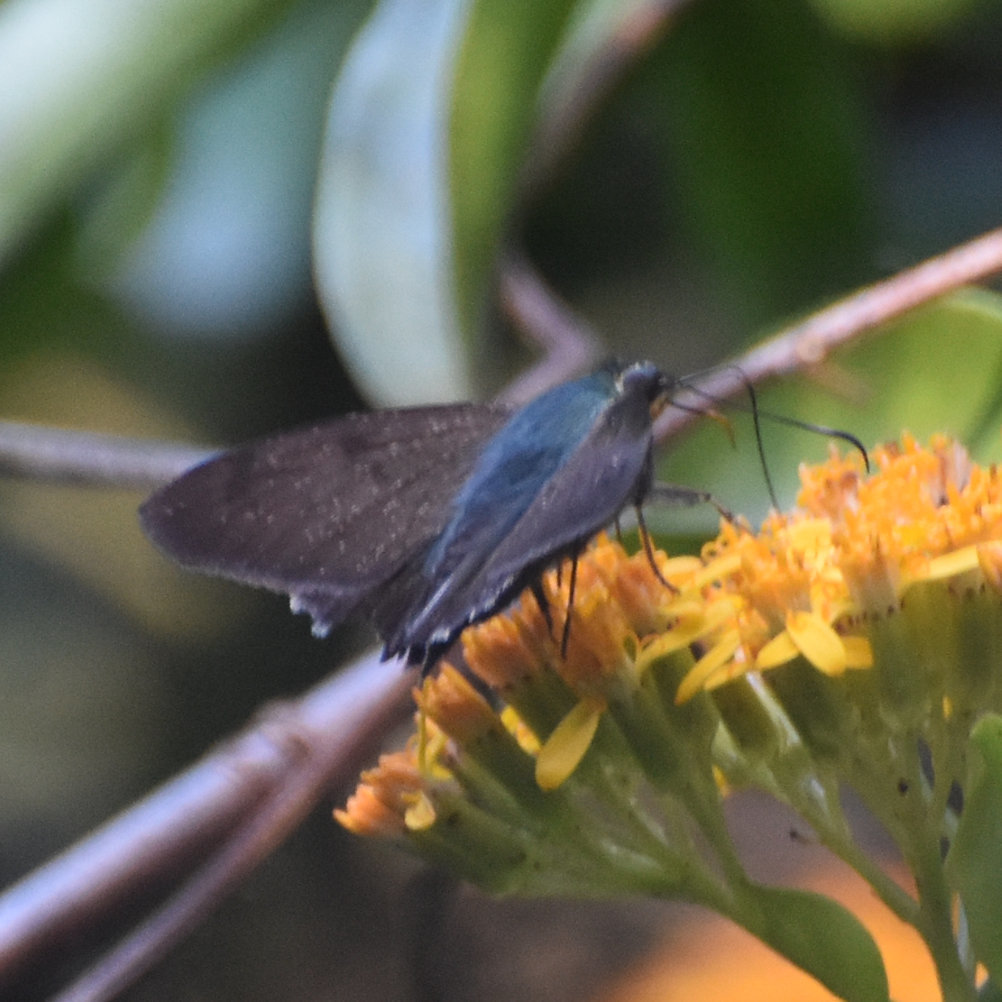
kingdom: Animalia
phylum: Arthropoda
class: Insecta
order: Lepidoptera
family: Hesperiidae
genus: Astraptes
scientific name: Astraptes jaira
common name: Jamaican flasher
